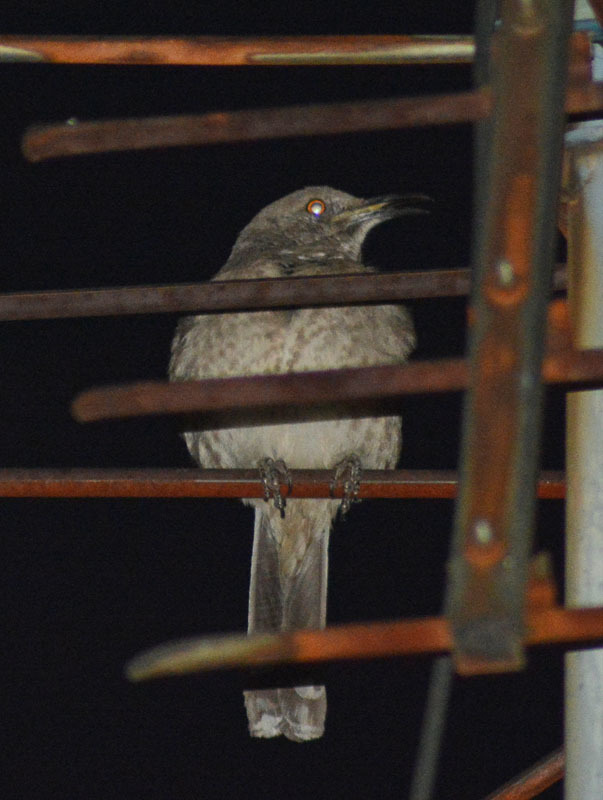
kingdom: Animalia
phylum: Chordata
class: Aves
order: Passeriformes
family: Mimidae
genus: Toxostoma
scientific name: Toxostoma curvirostre
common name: Curve-billed thrasher
